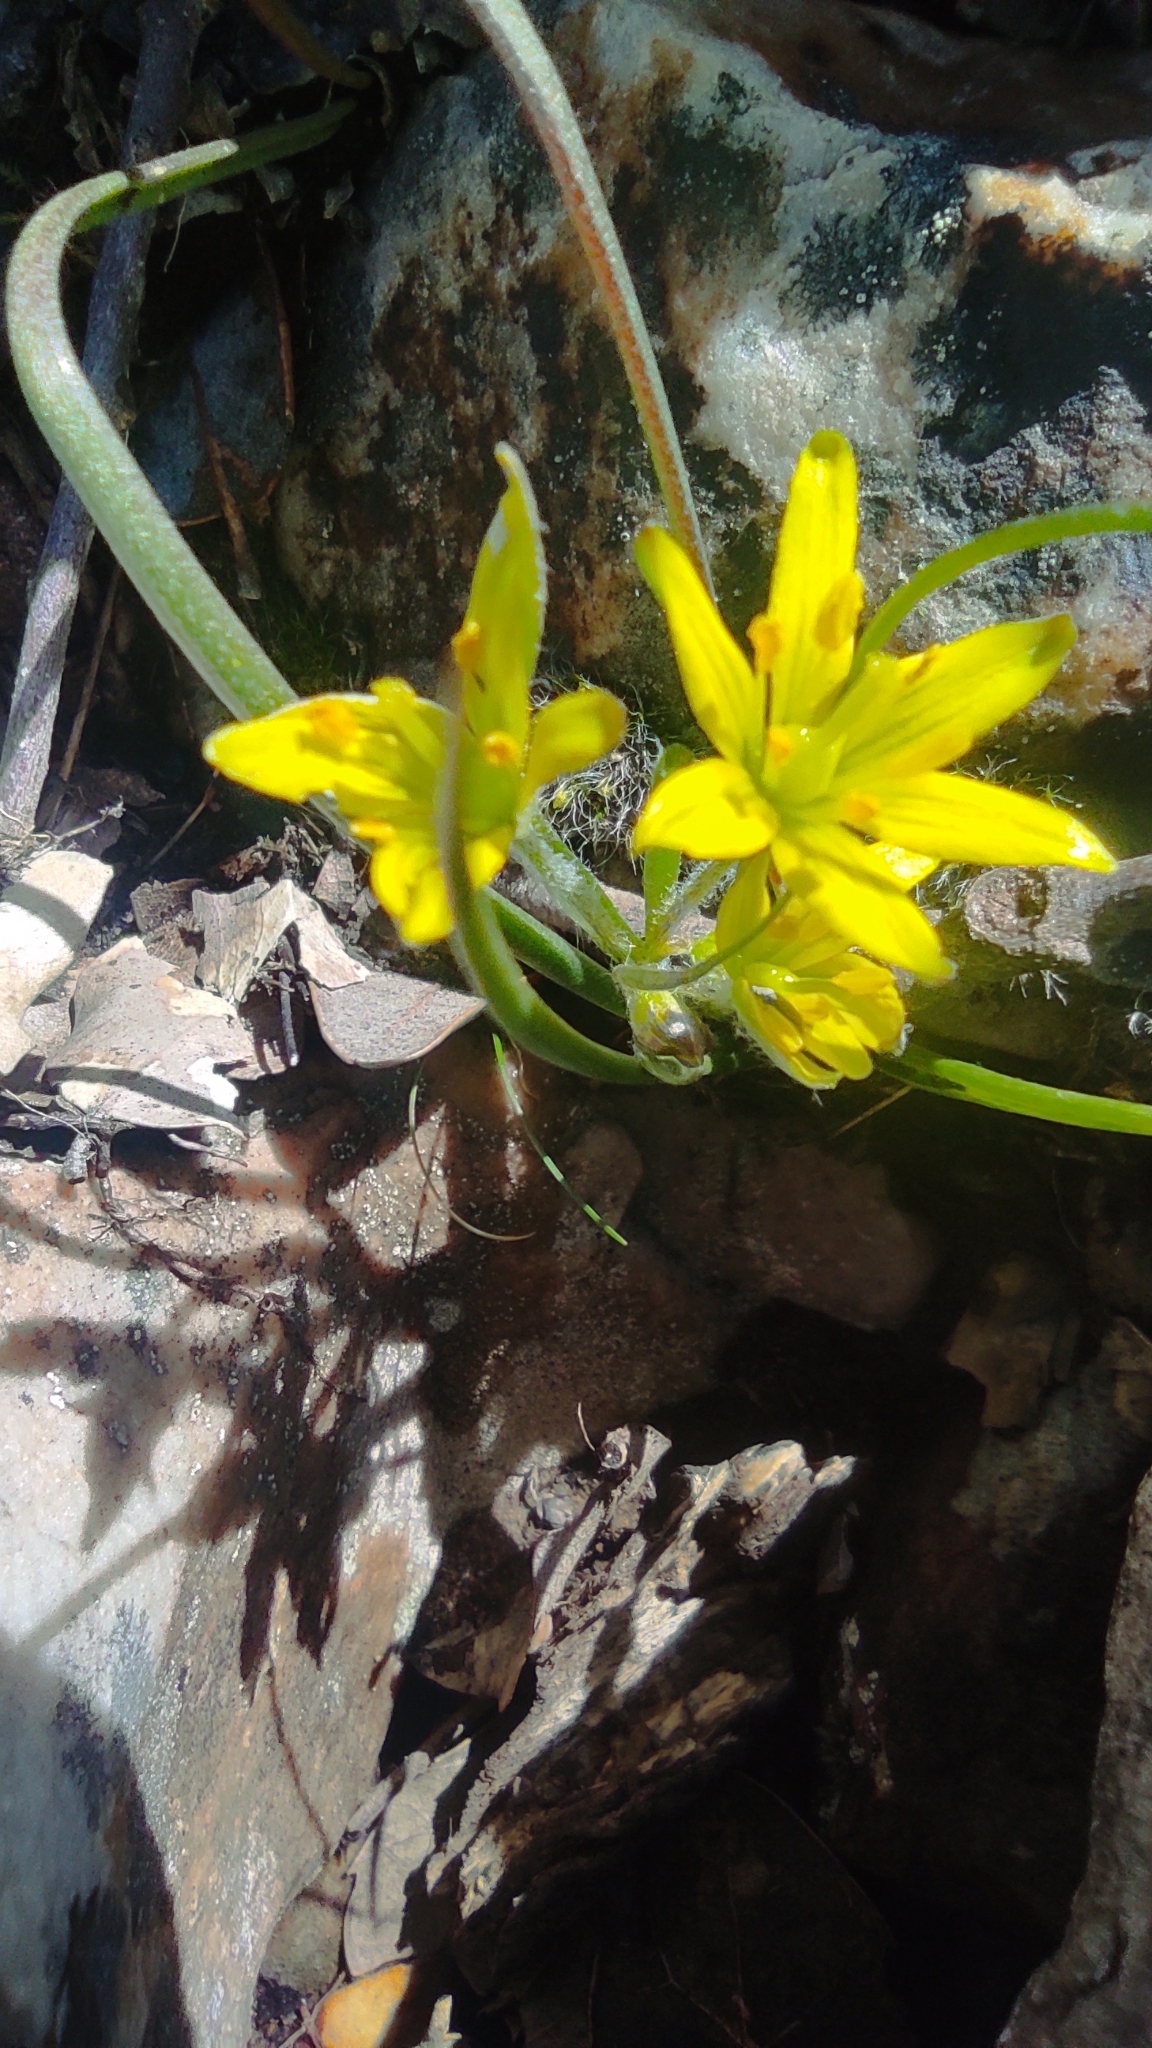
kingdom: Plantae
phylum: Tracheophyta
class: Liliopsida
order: Liliales
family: Liliaceae
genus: Gagea
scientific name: Gagea bohemica
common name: Early star-of-bethlehem
